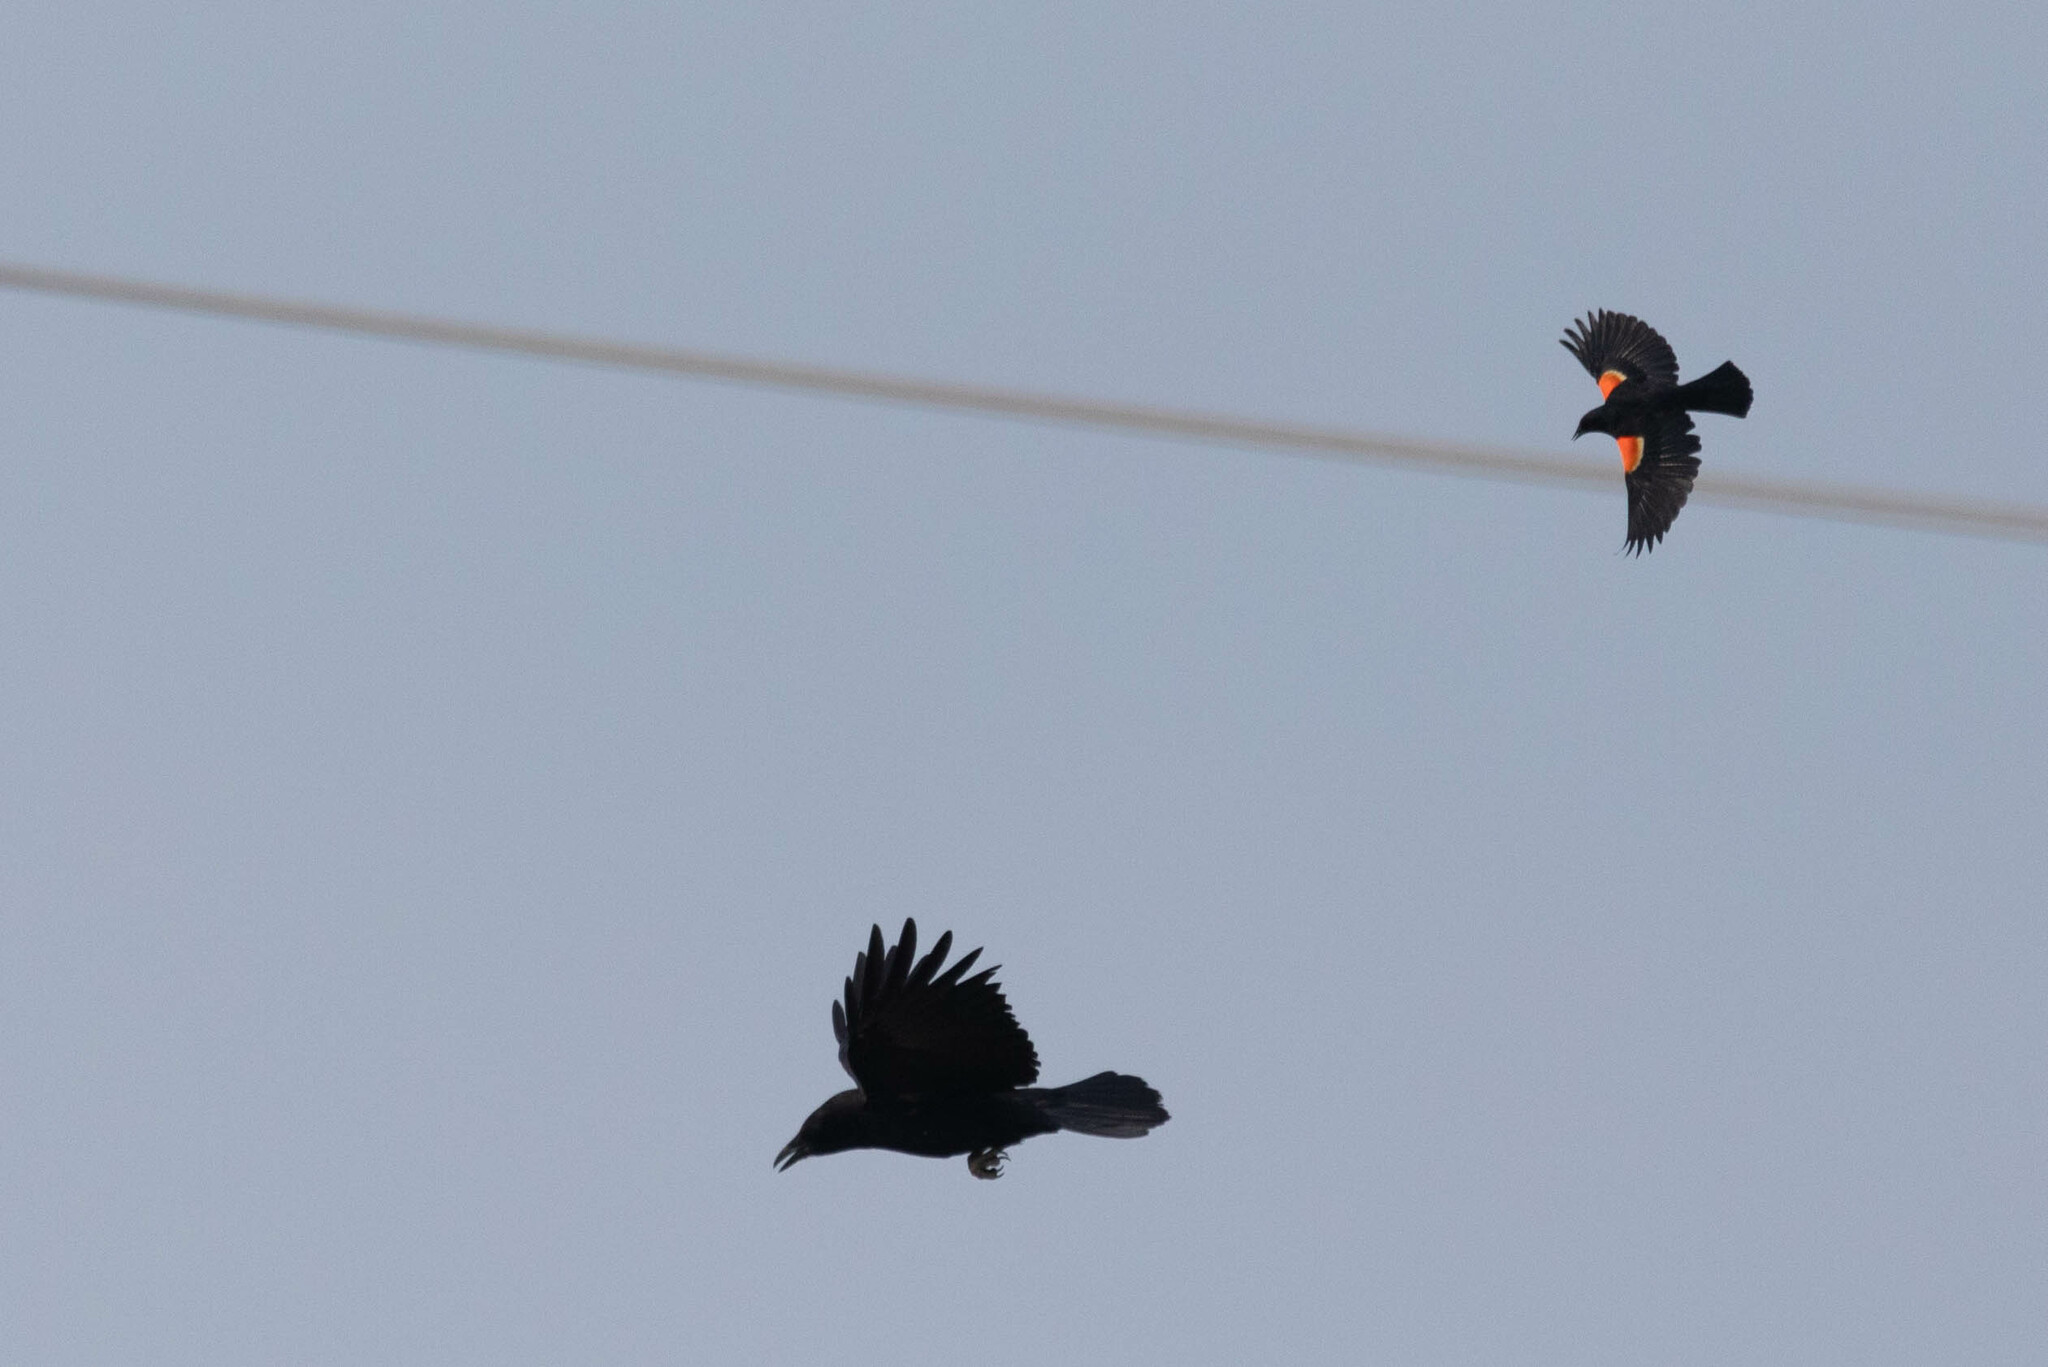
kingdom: Animalia
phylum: Chordata
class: Aves
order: Passeriformes
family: Corvidae
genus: Corvus
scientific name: Corvus brachyrhynchos
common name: American crow
